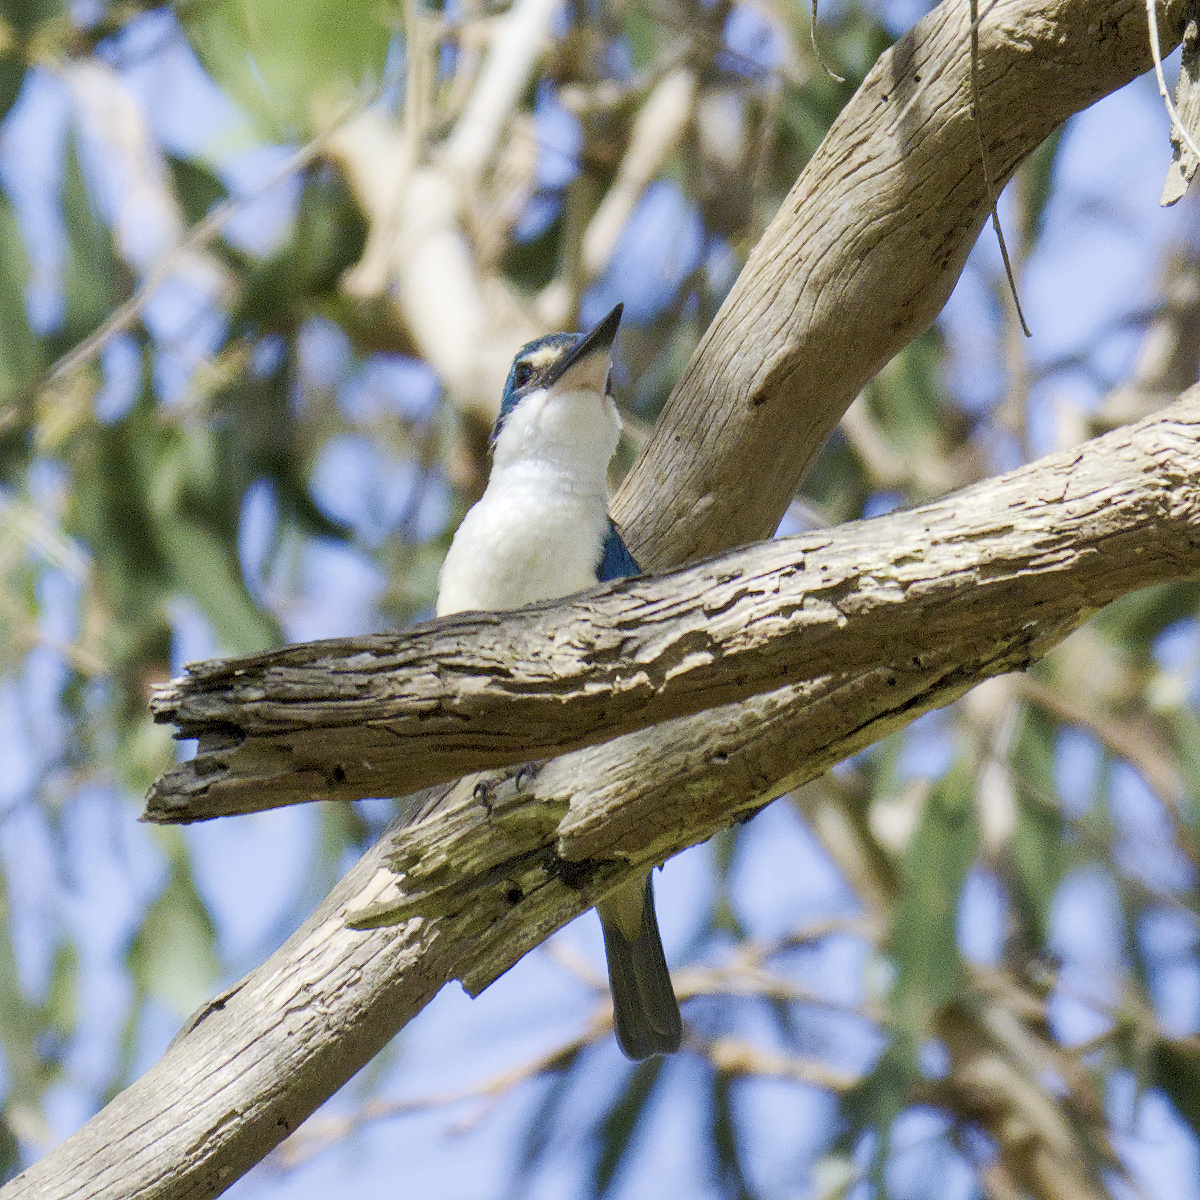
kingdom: Animalia
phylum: Chordata
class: Aves
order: Coraciiformes
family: Alcedinidae
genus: Todiramphus
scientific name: Todiramphus sanctus
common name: Sacred kingfisher
